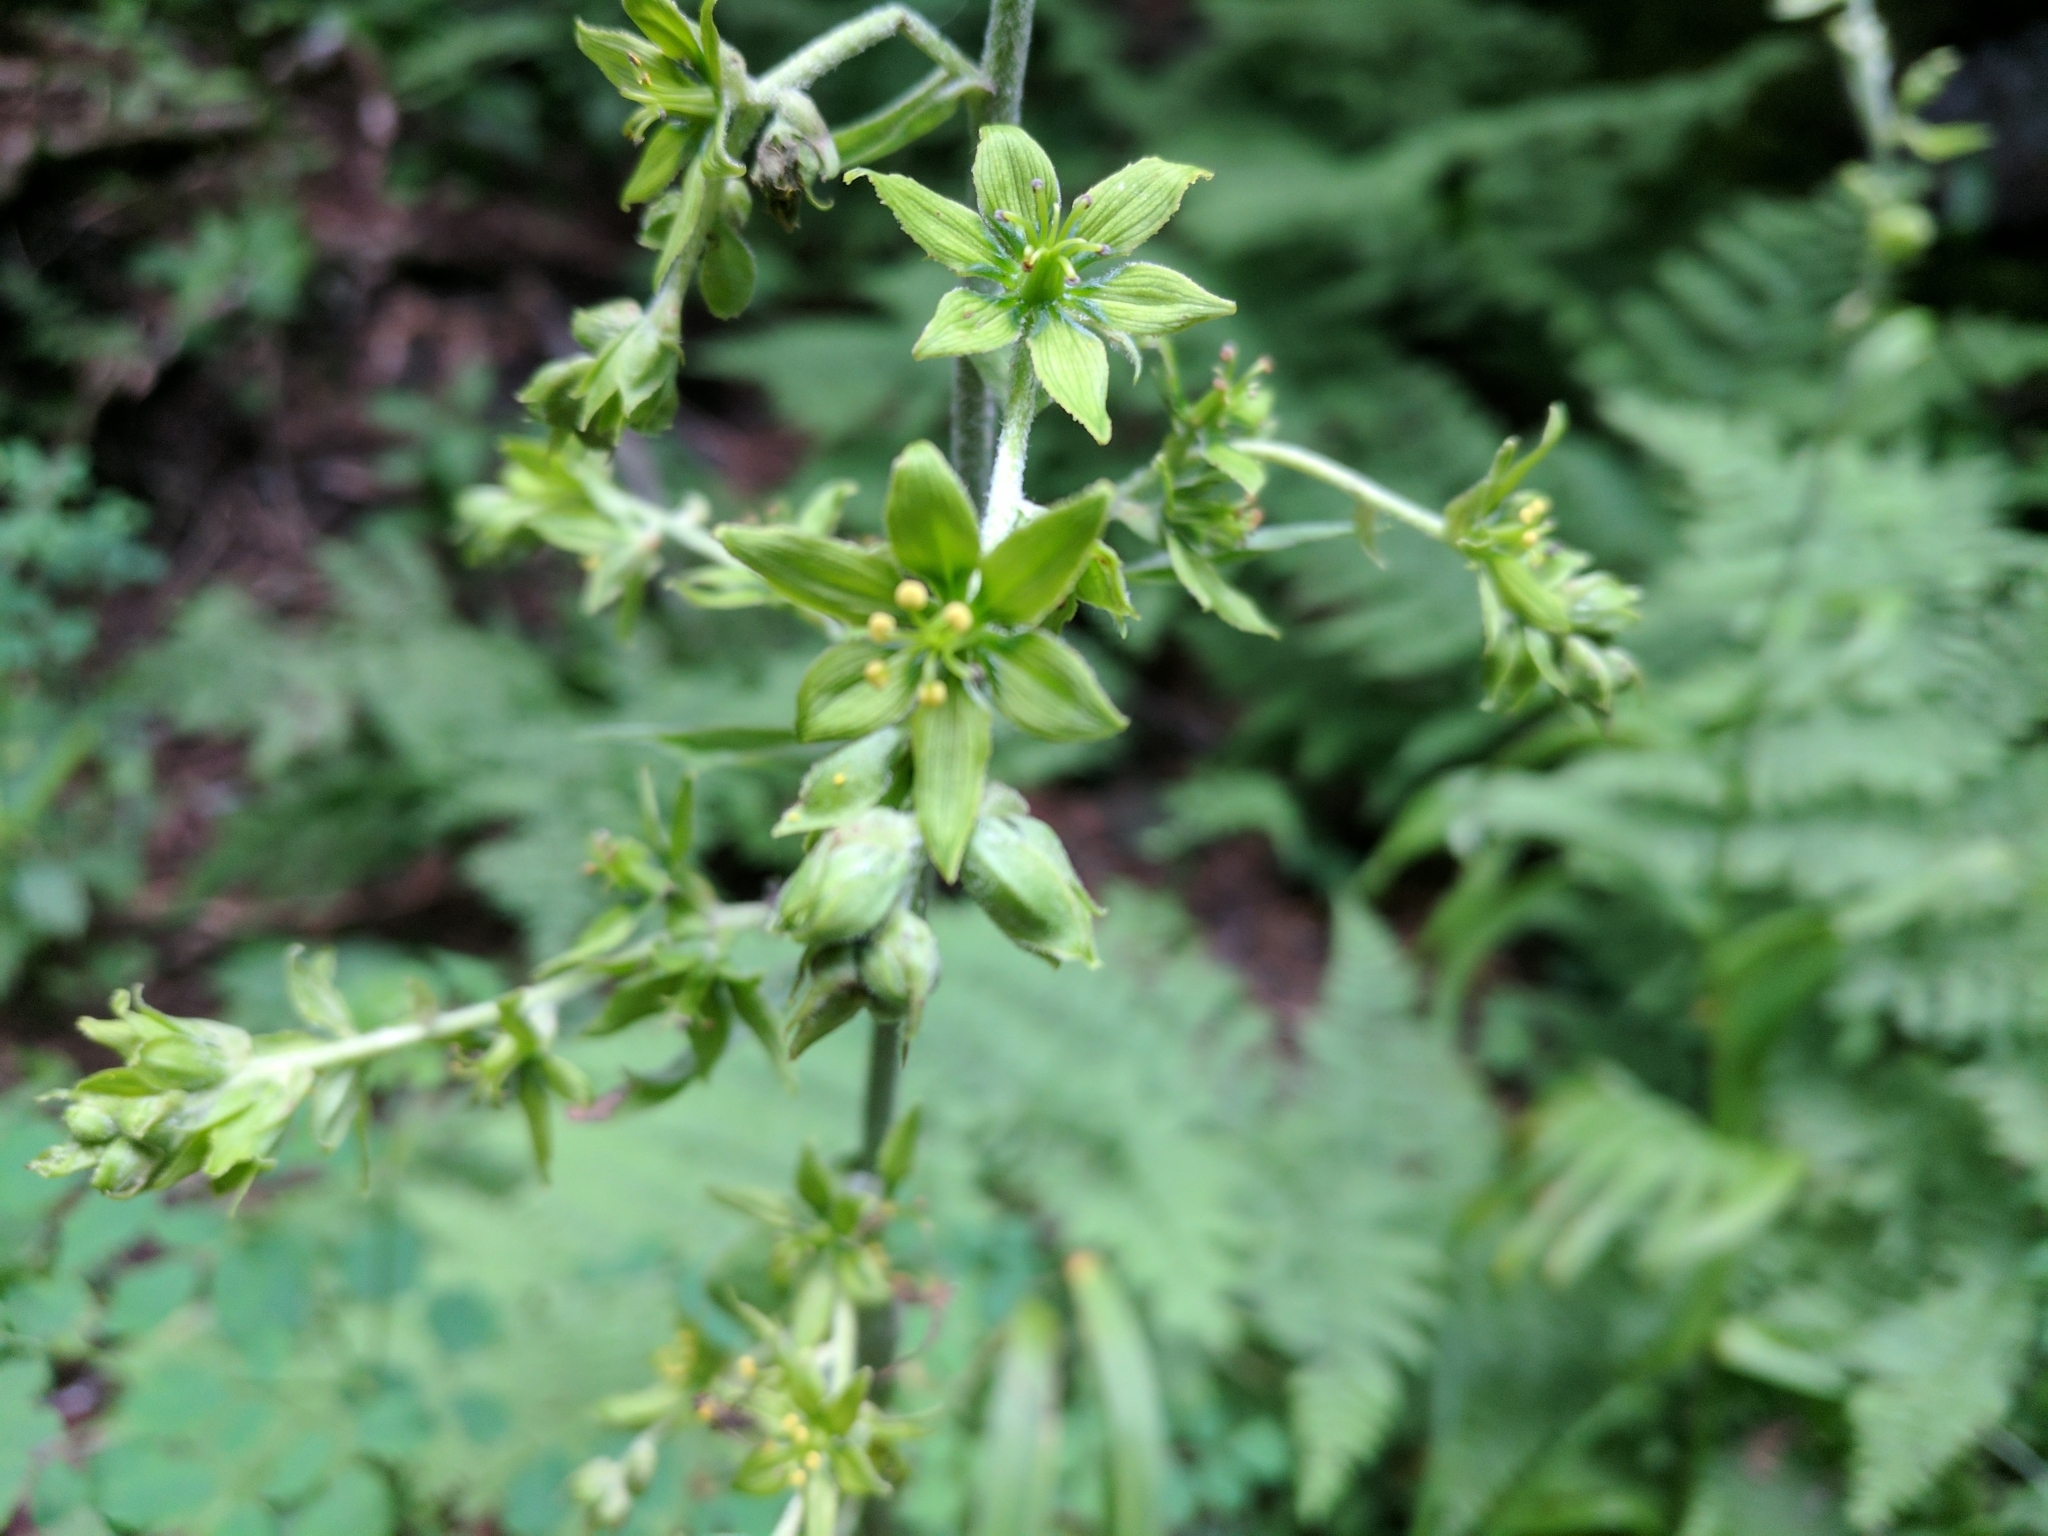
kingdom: Plantae
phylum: Tracheophyta
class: Liliopsida
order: Liliales
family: Melanthiaceae
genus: Veratrum
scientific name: Veratrum viride
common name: American false hellebore
